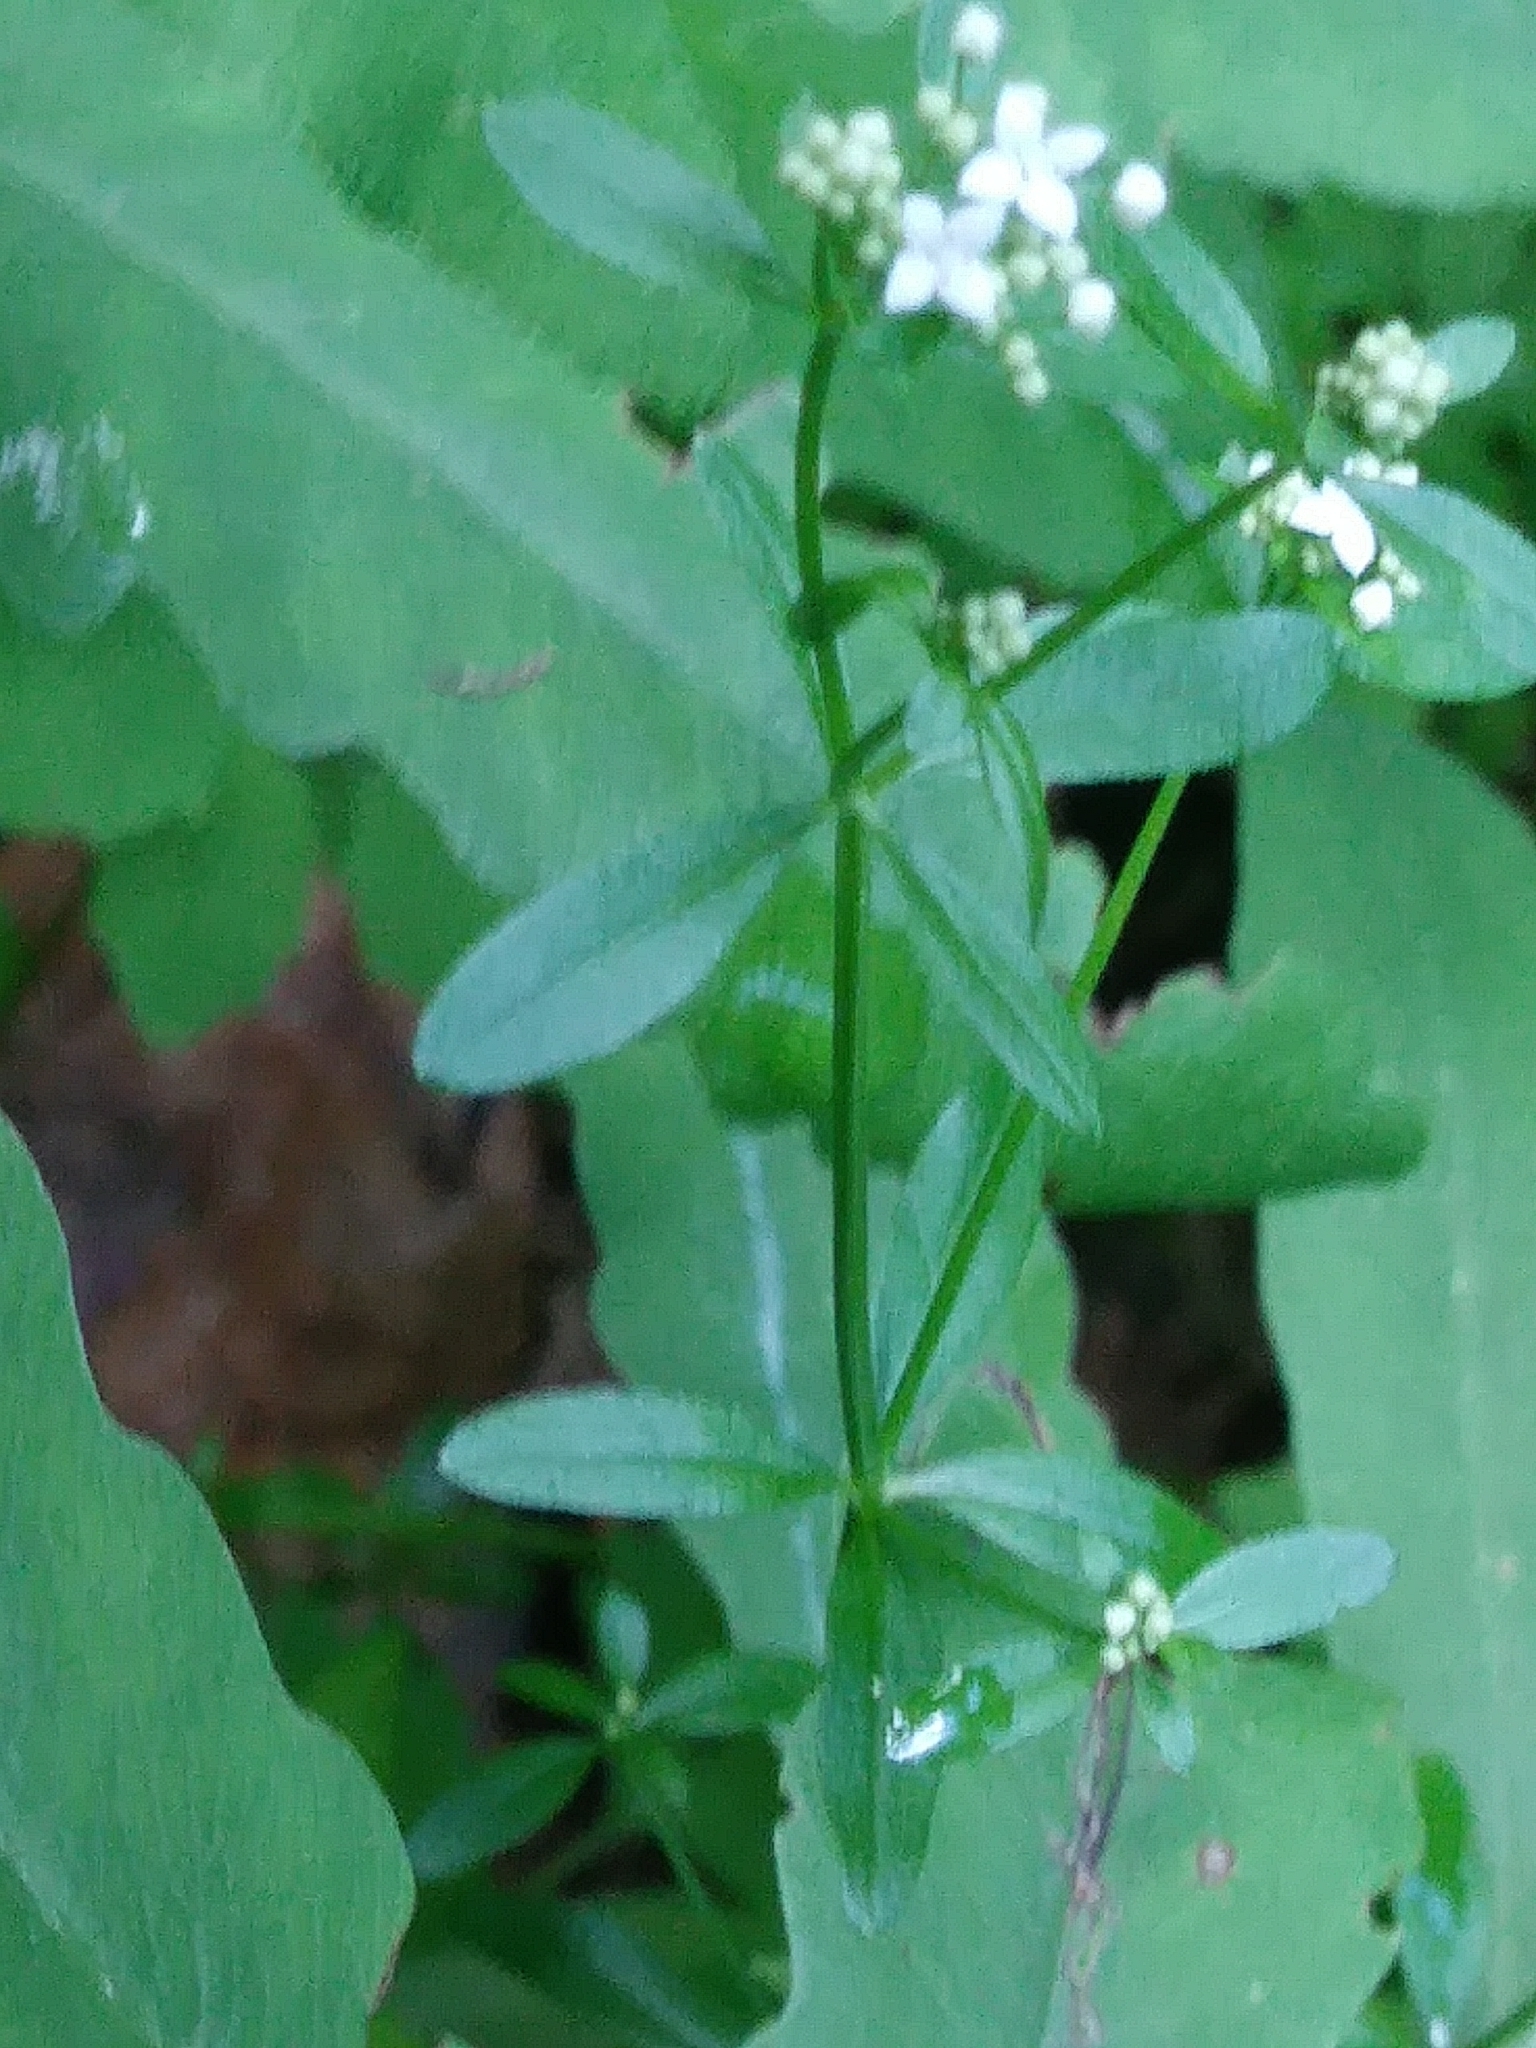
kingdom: Plantae
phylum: Tracheophyta
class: Magnoliopsida
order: Gentianales
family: Rubiaceae
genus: Galium
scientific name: Galium palustre
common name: Common marsh-bedstraw
